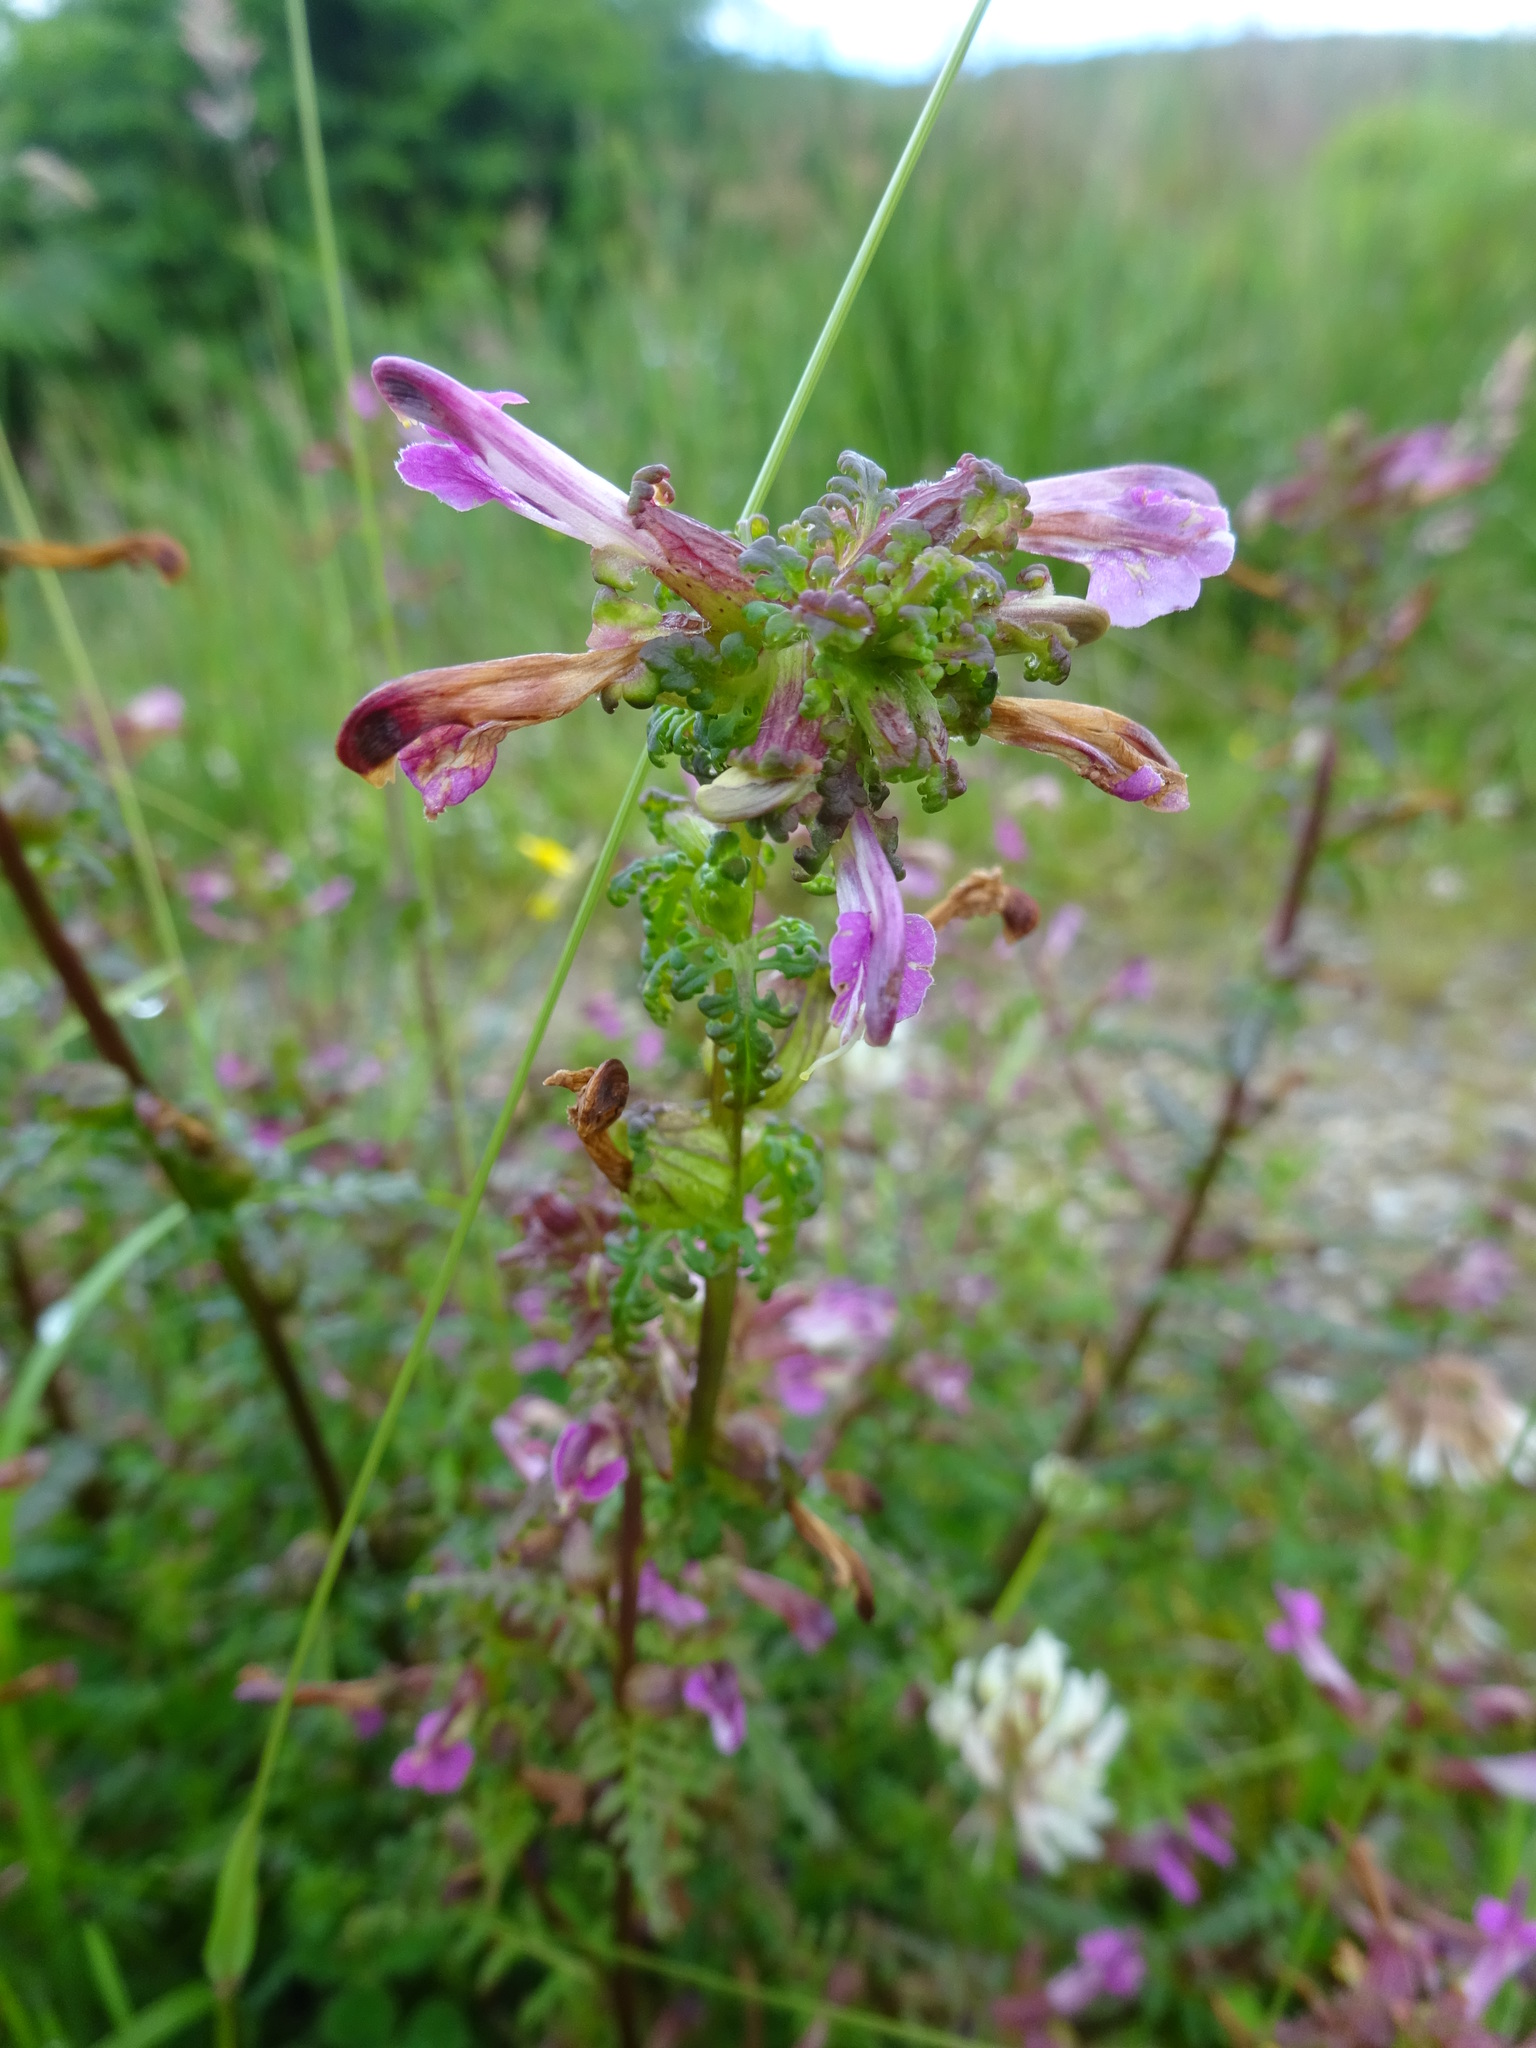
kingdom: Plantae
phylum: Tracheophyta
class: Magnoliopsida
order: Lamiales
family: Orobanchaceae
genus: Pedicularis
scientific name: Pedicularis palustris
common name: Marsh lousewort
